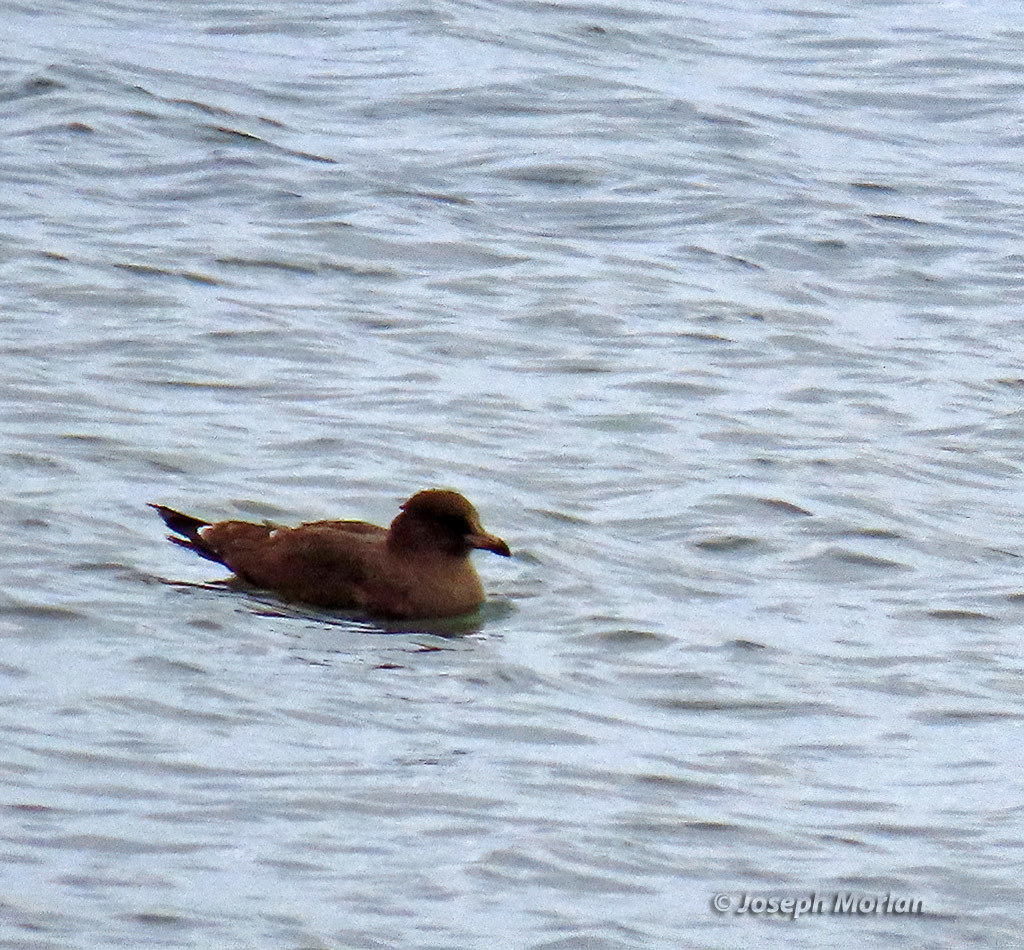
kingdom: Animalia
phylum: Chordata
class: Aves
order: Charadriiformes
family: Laridae
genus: Larus
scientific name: Larus heermanni
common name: Heermann's gull
